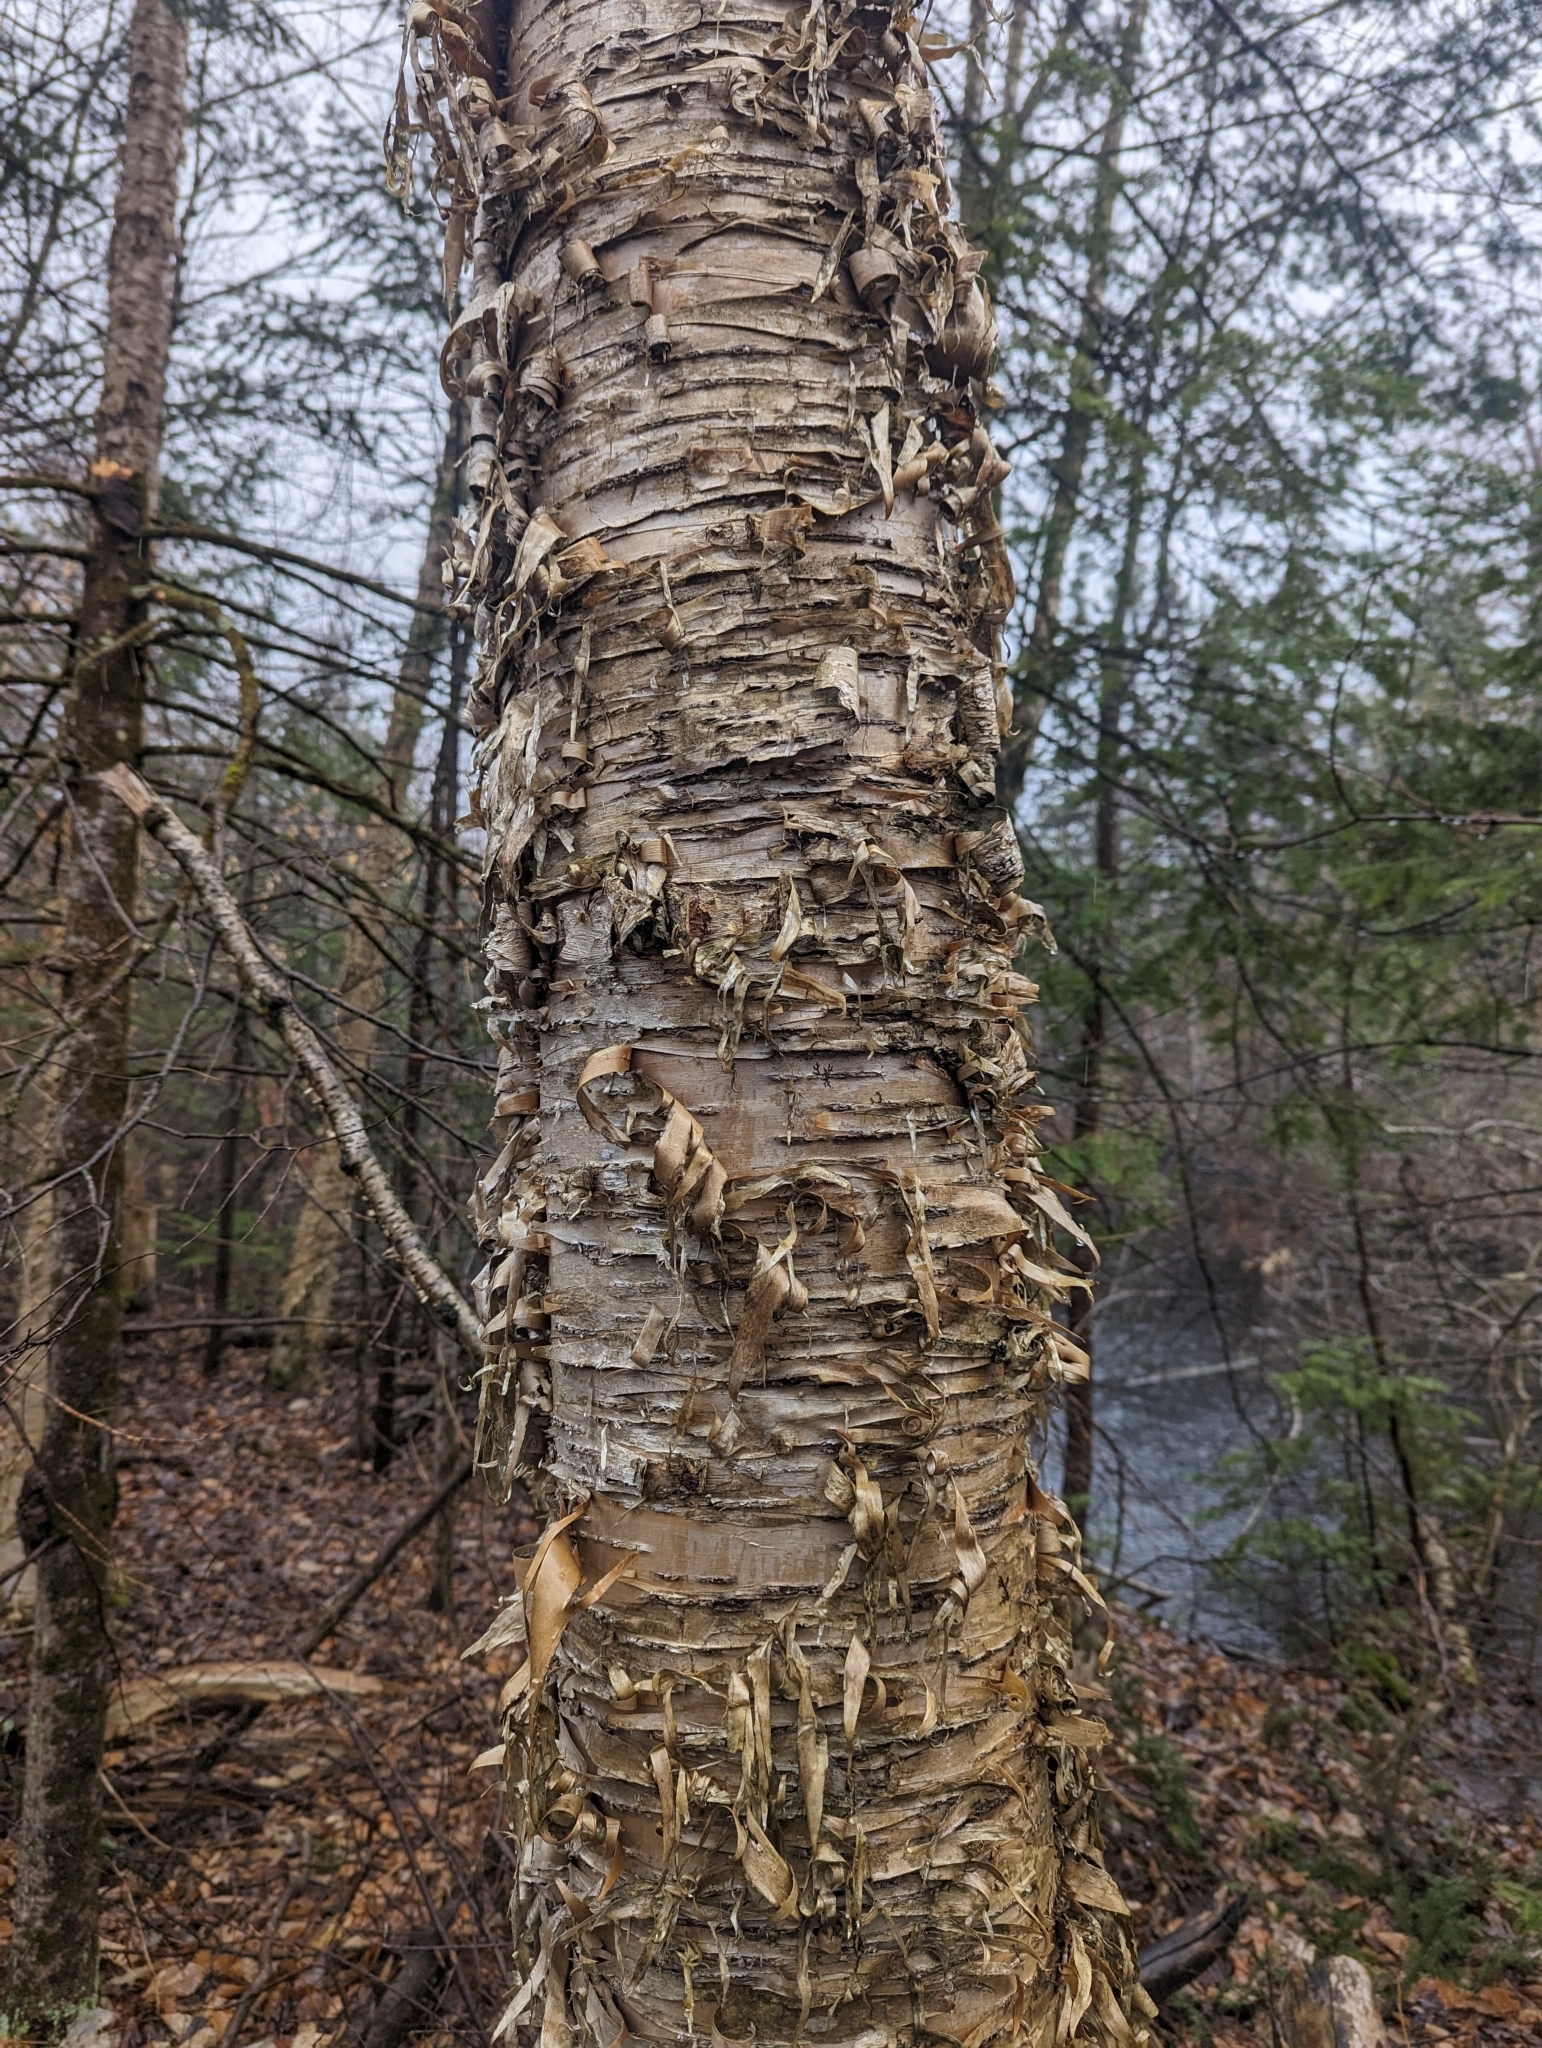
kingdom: Plantae
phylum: Tracheophyta
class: Magnoliopsida
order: Fagales
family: Betulaceae
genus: Betula
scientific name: Betula alleghaniensis
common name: Yellow birch
